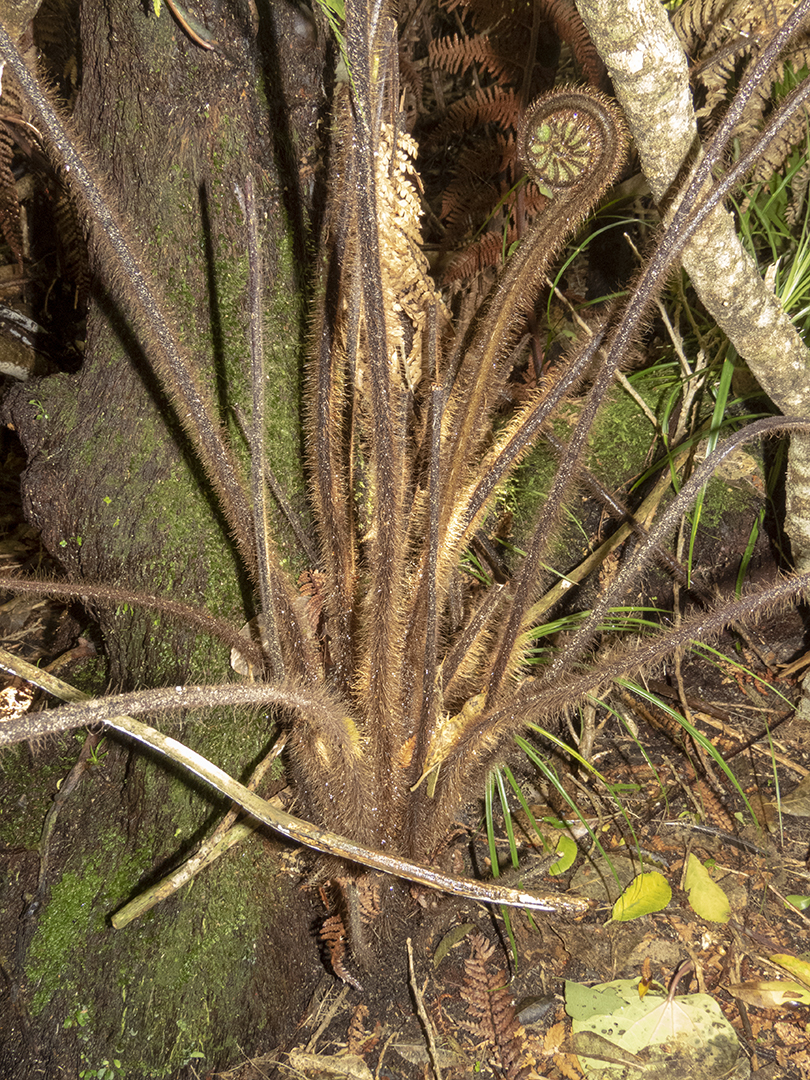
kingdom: Plantae
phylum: Tracheophyta
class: Polypodiopsida
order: Cyatheales
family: Dicksoniaceae
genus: Dicksonia
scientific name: Dicksonia squarrosa
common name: Hard treefern
